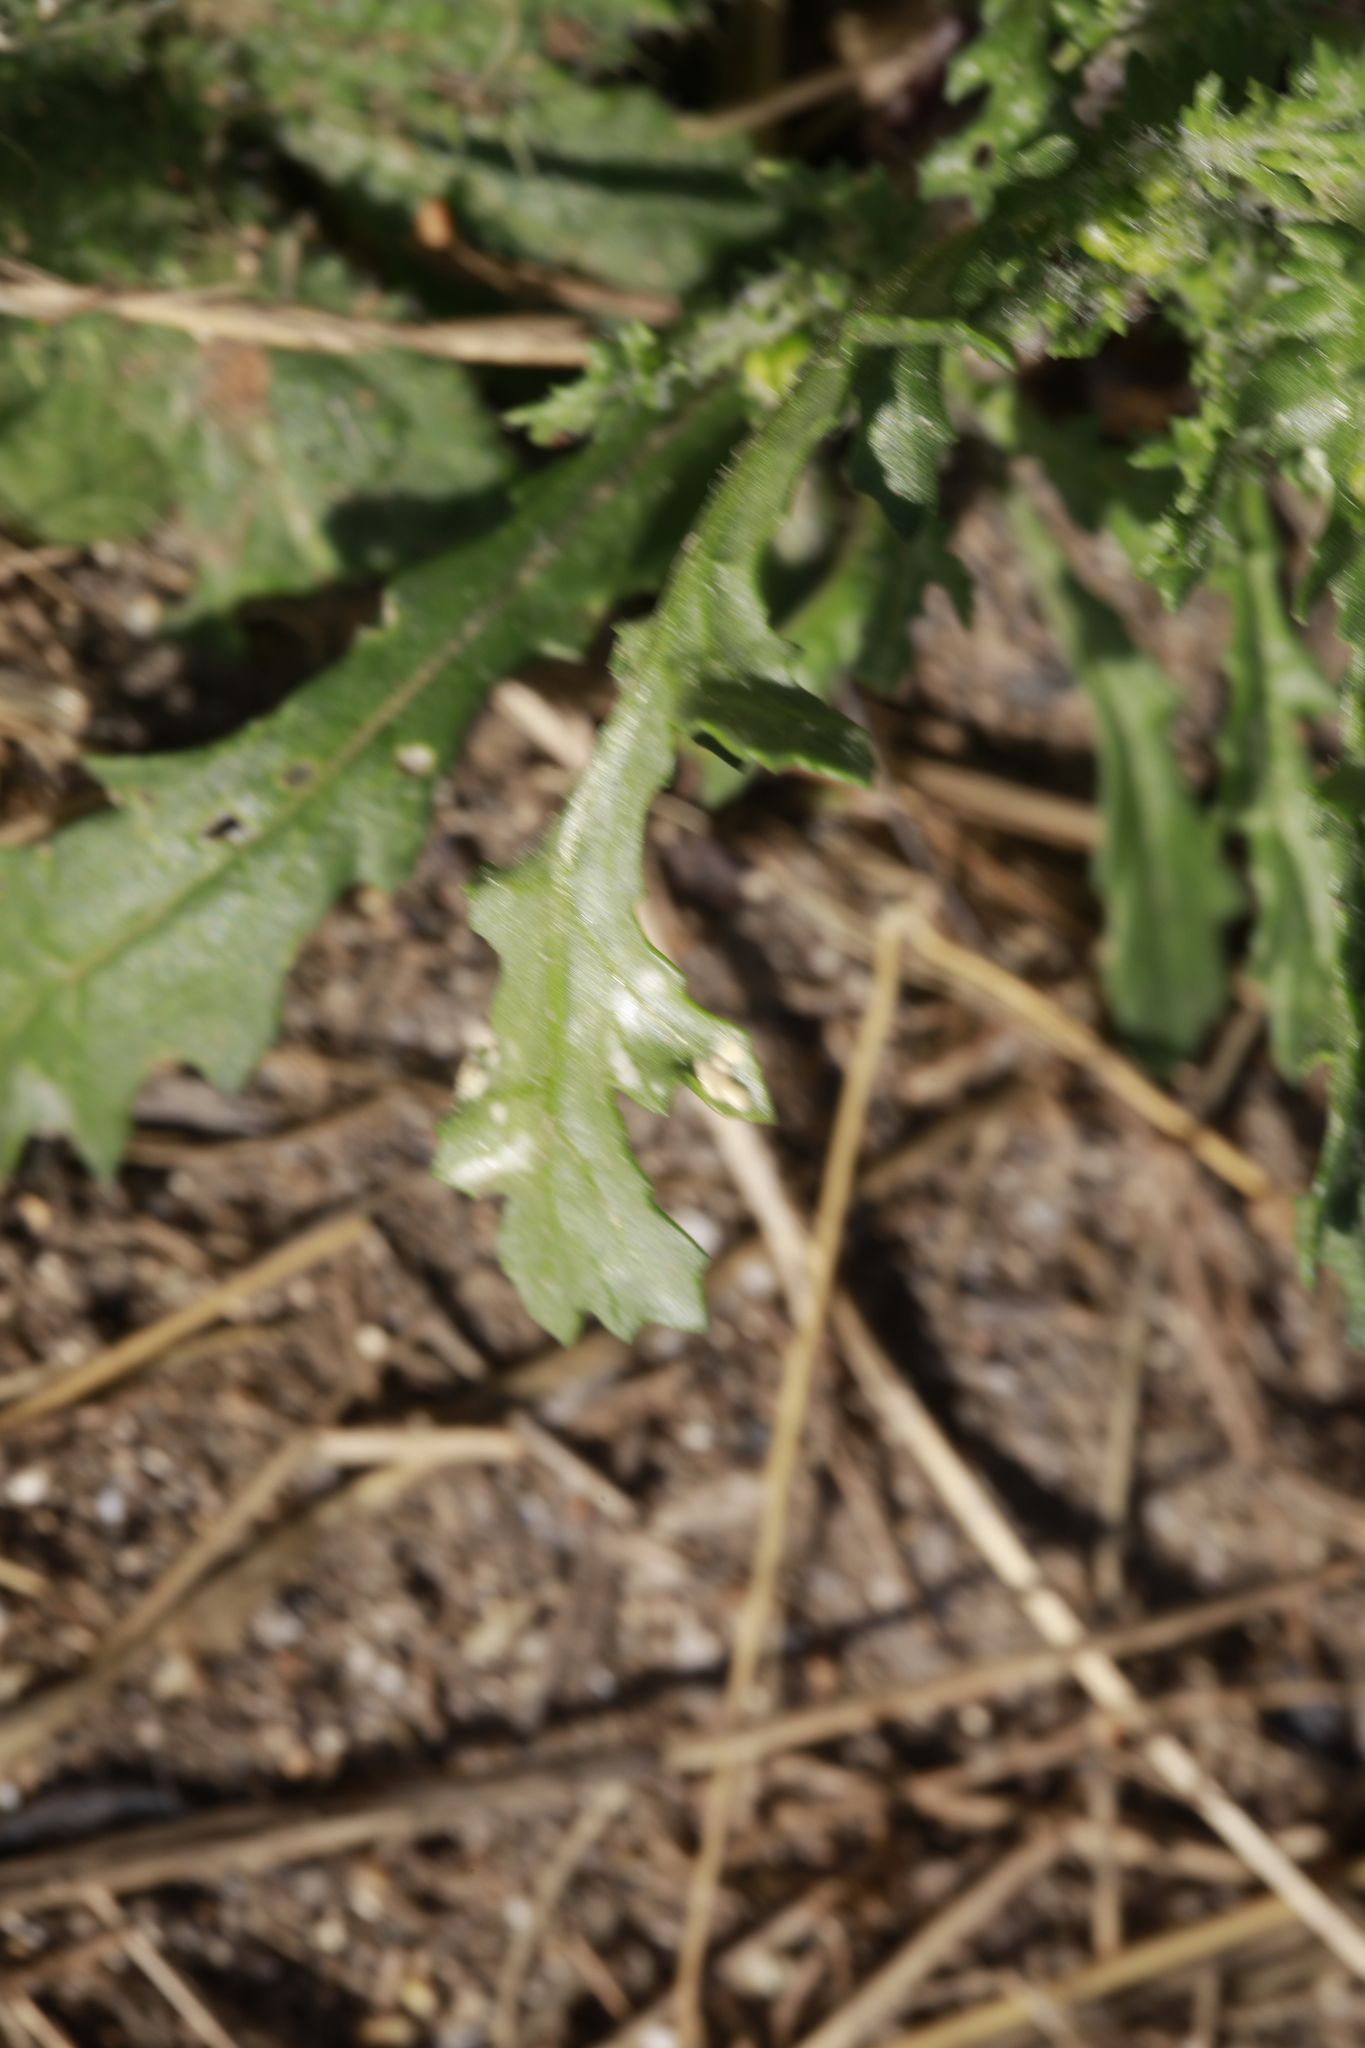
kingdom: Chromista
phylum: Oomycota
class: Peronosporea
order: Albuginales
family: Albuginaceae
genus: Pustula
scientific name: Pustula
